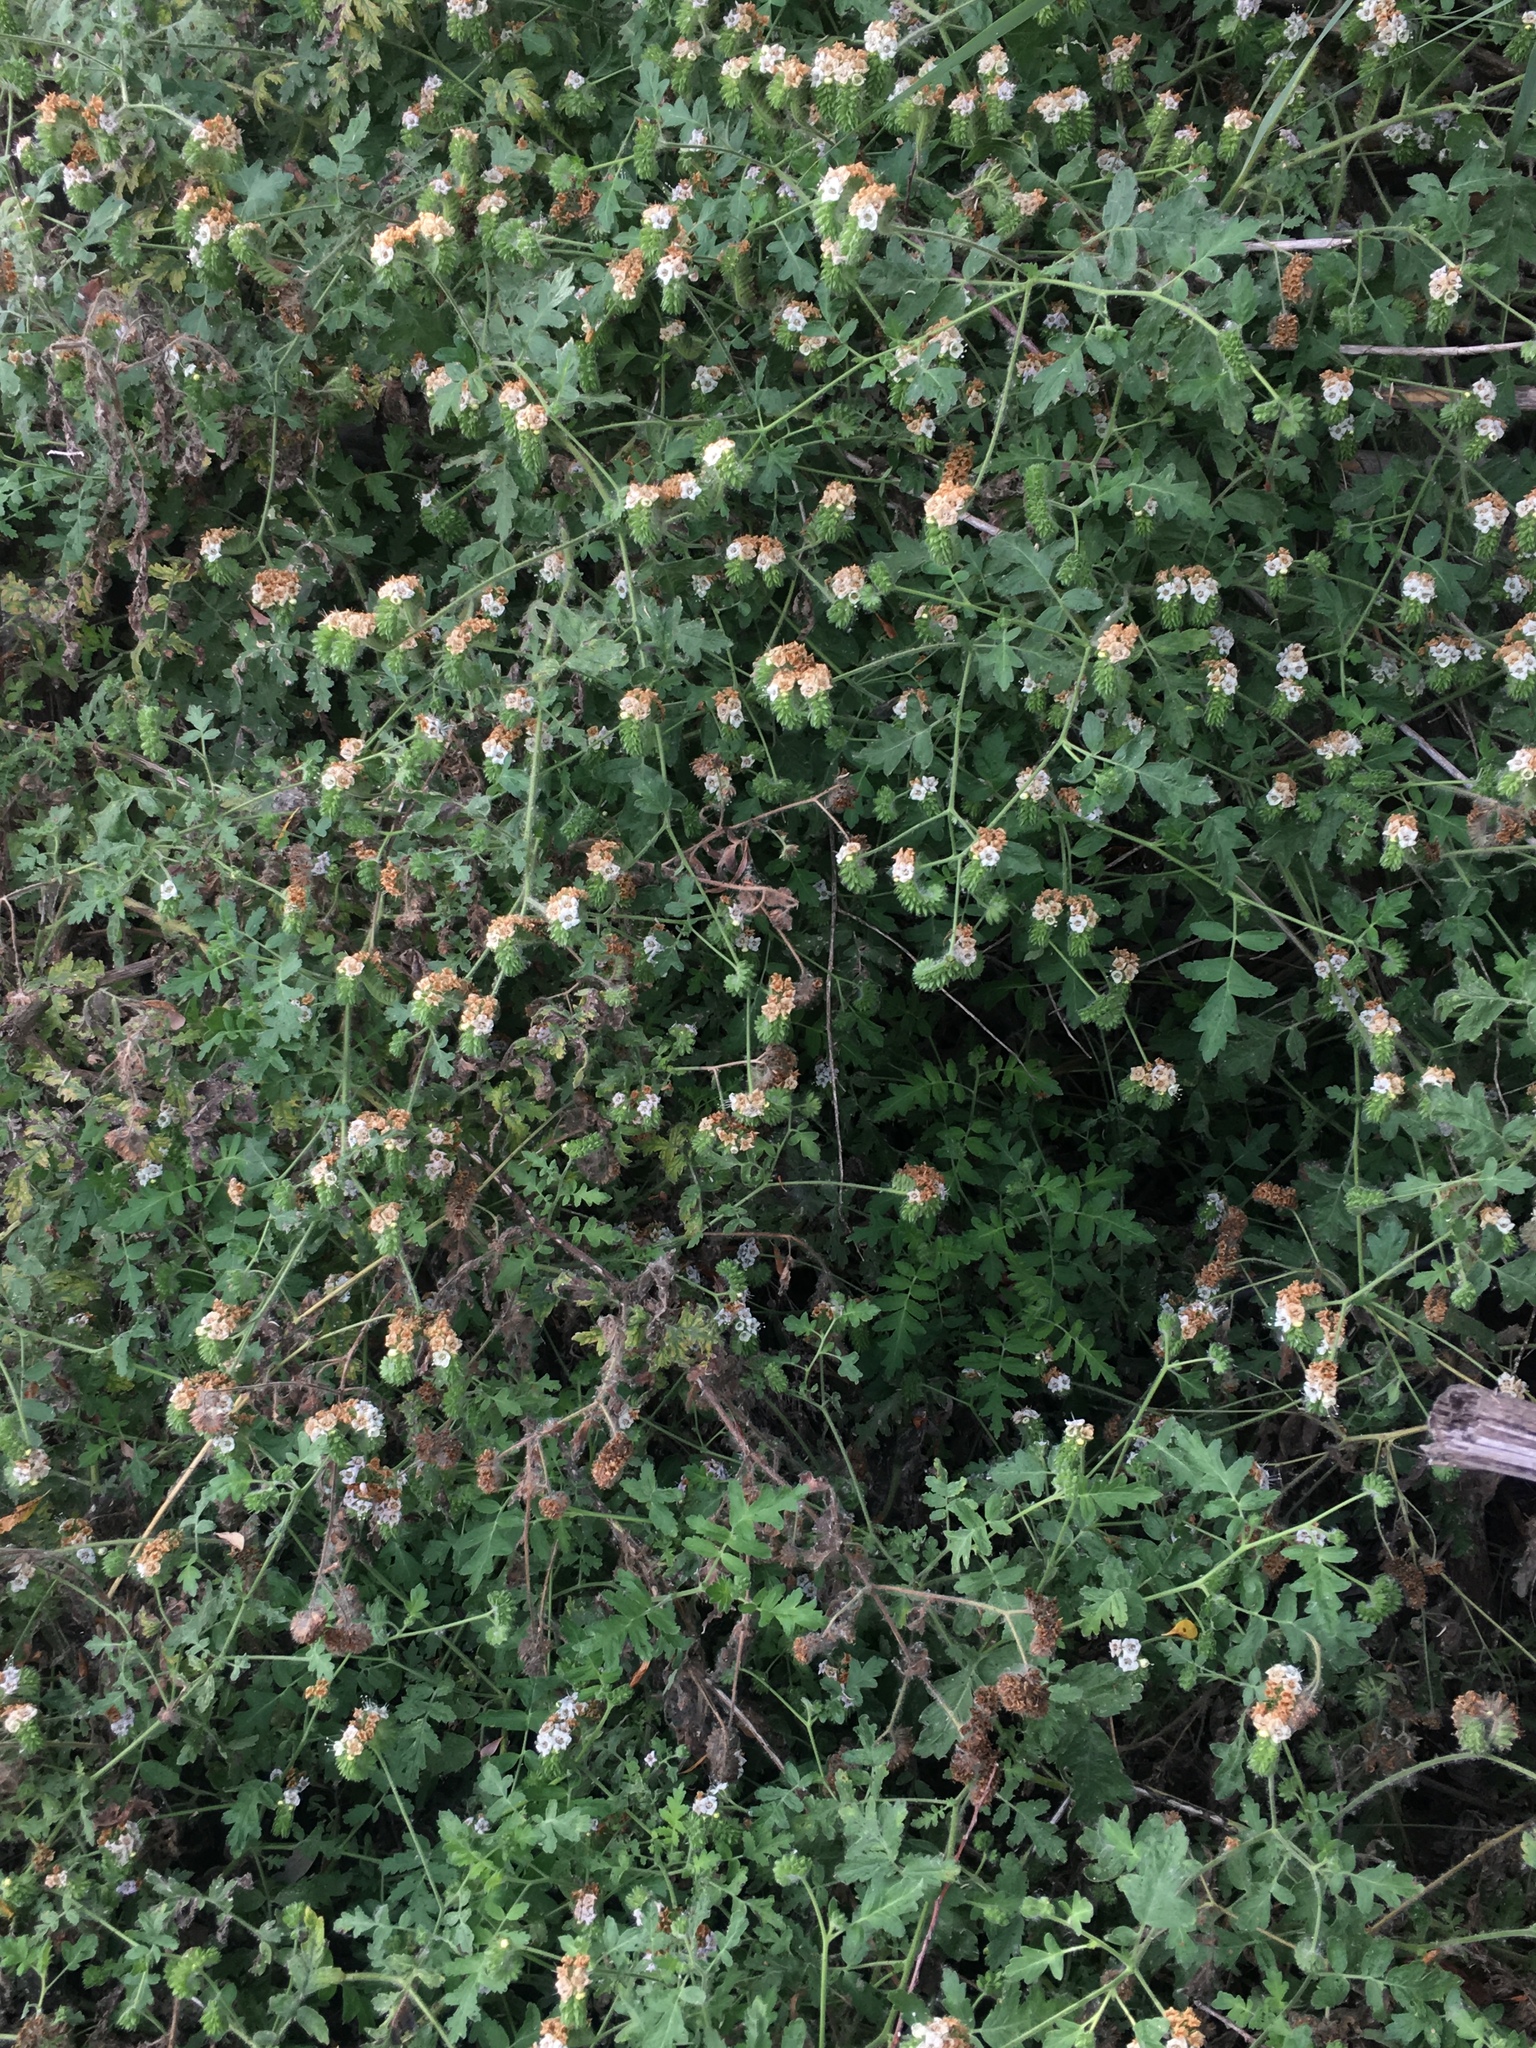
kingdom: Plantae
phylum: Tracheophyta
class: Magnoliopsida
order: Boraginales
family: Hydrophyllaceae
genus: Phacelia
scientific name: Phacelia ramosissima
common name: Branching phacelia
